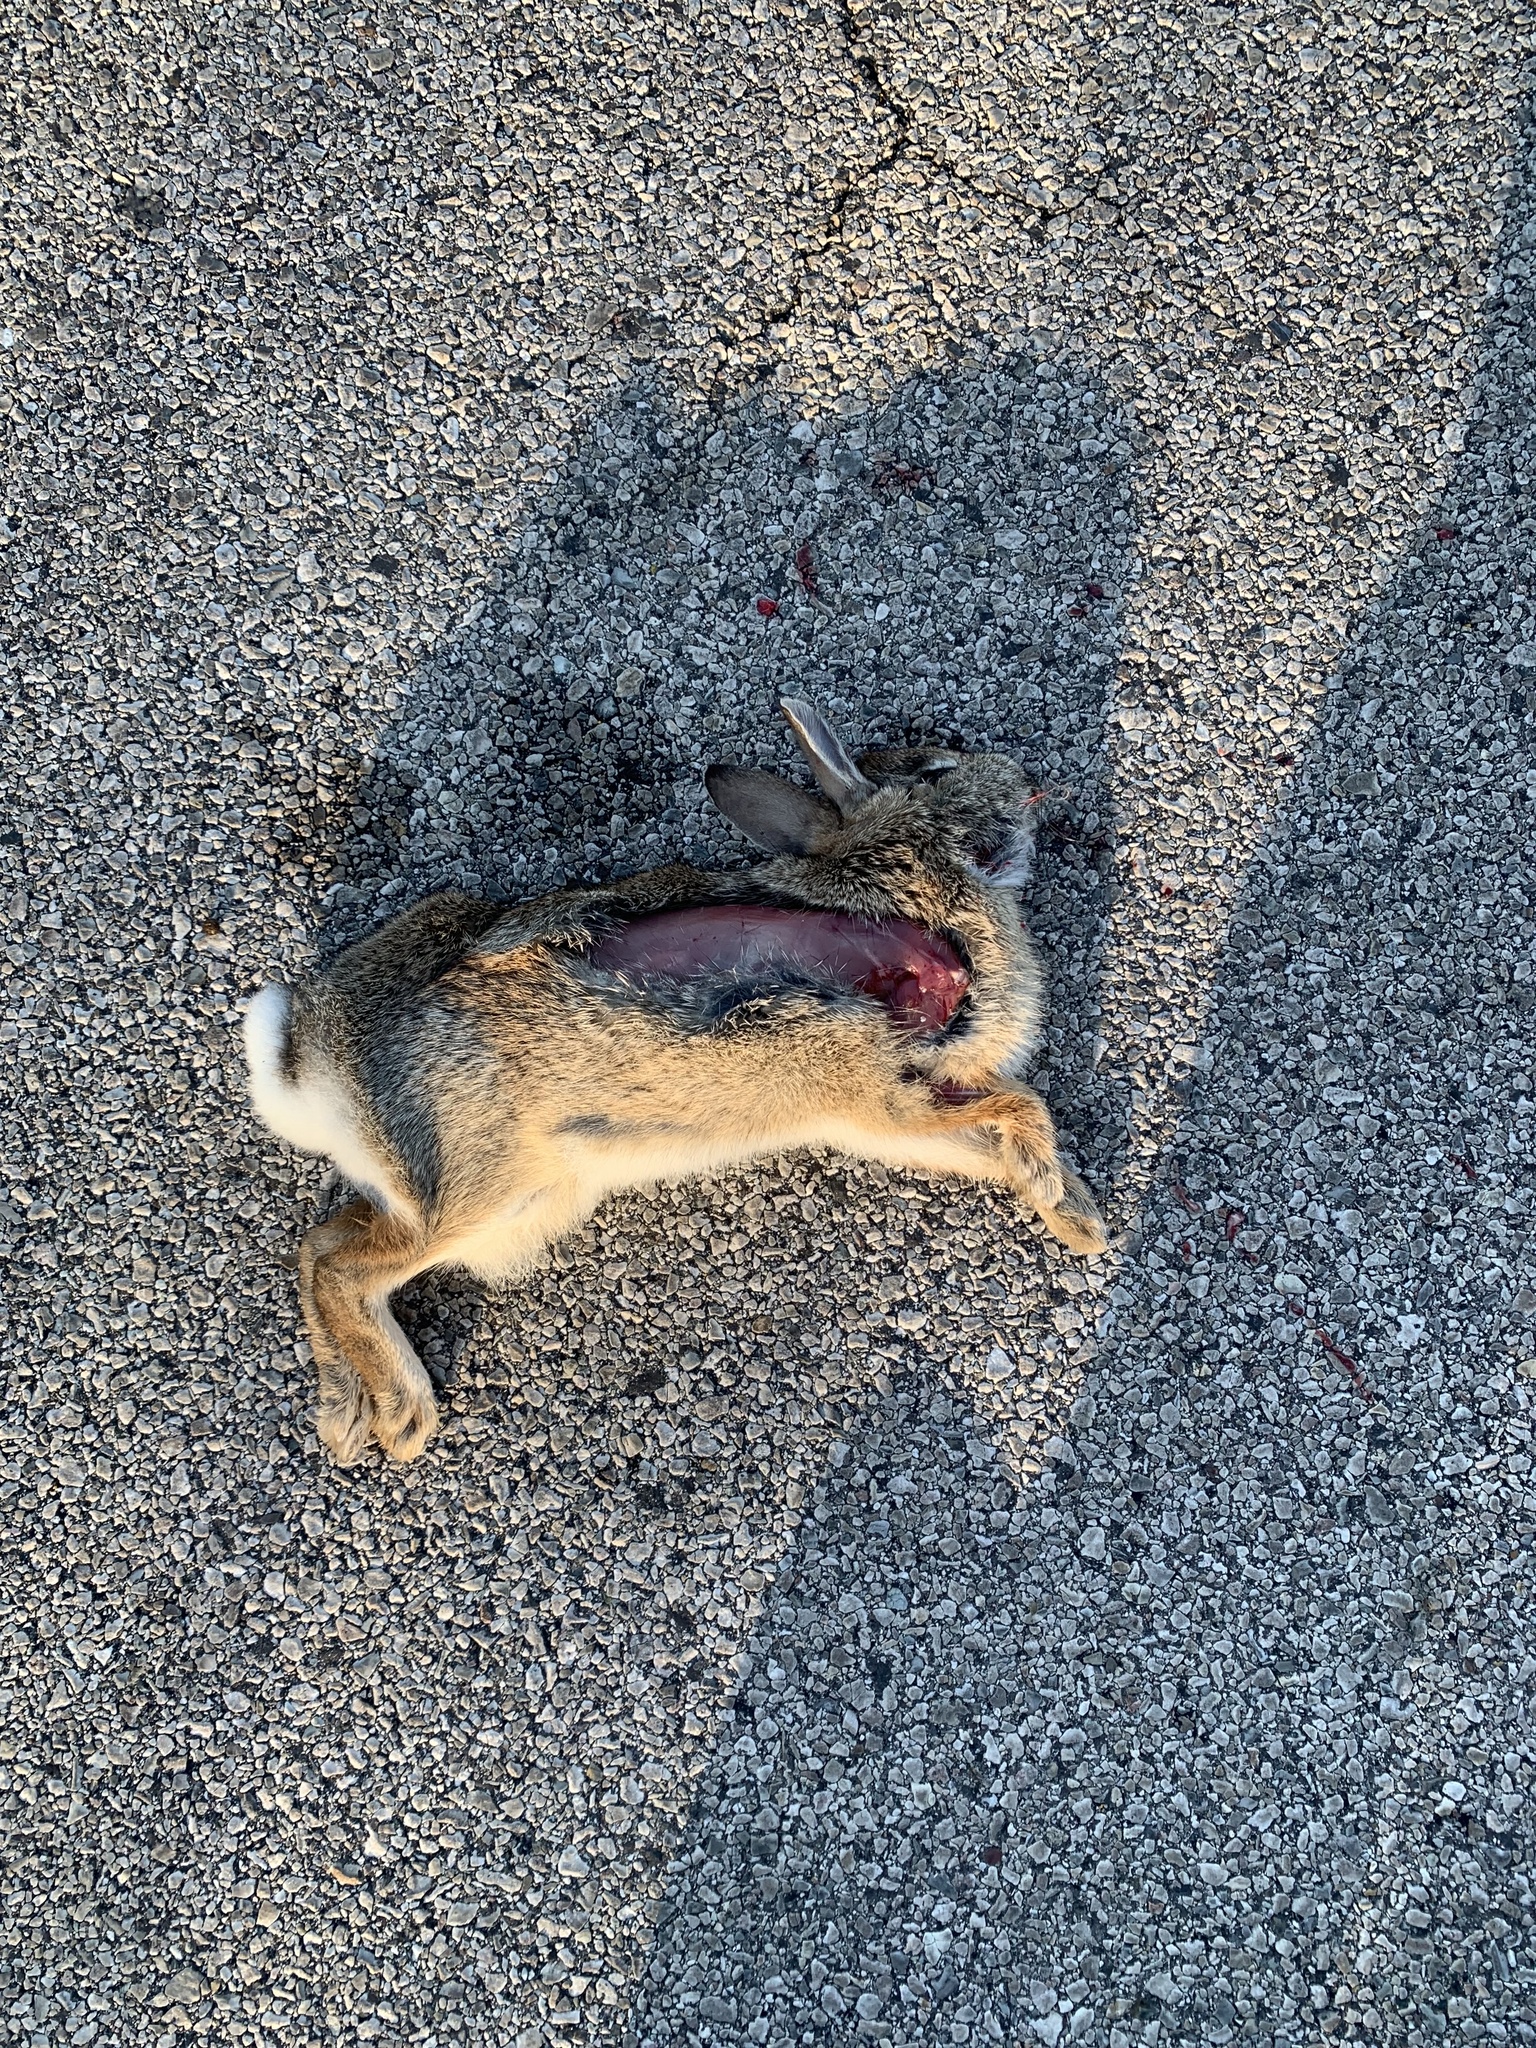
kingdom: Animalia
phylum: Chordata
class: Mammalia
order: Lagomorpha
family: Leporidae
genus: Sylvilagus
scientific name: Sylvilagus floridanus
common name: Eastern cottontail
